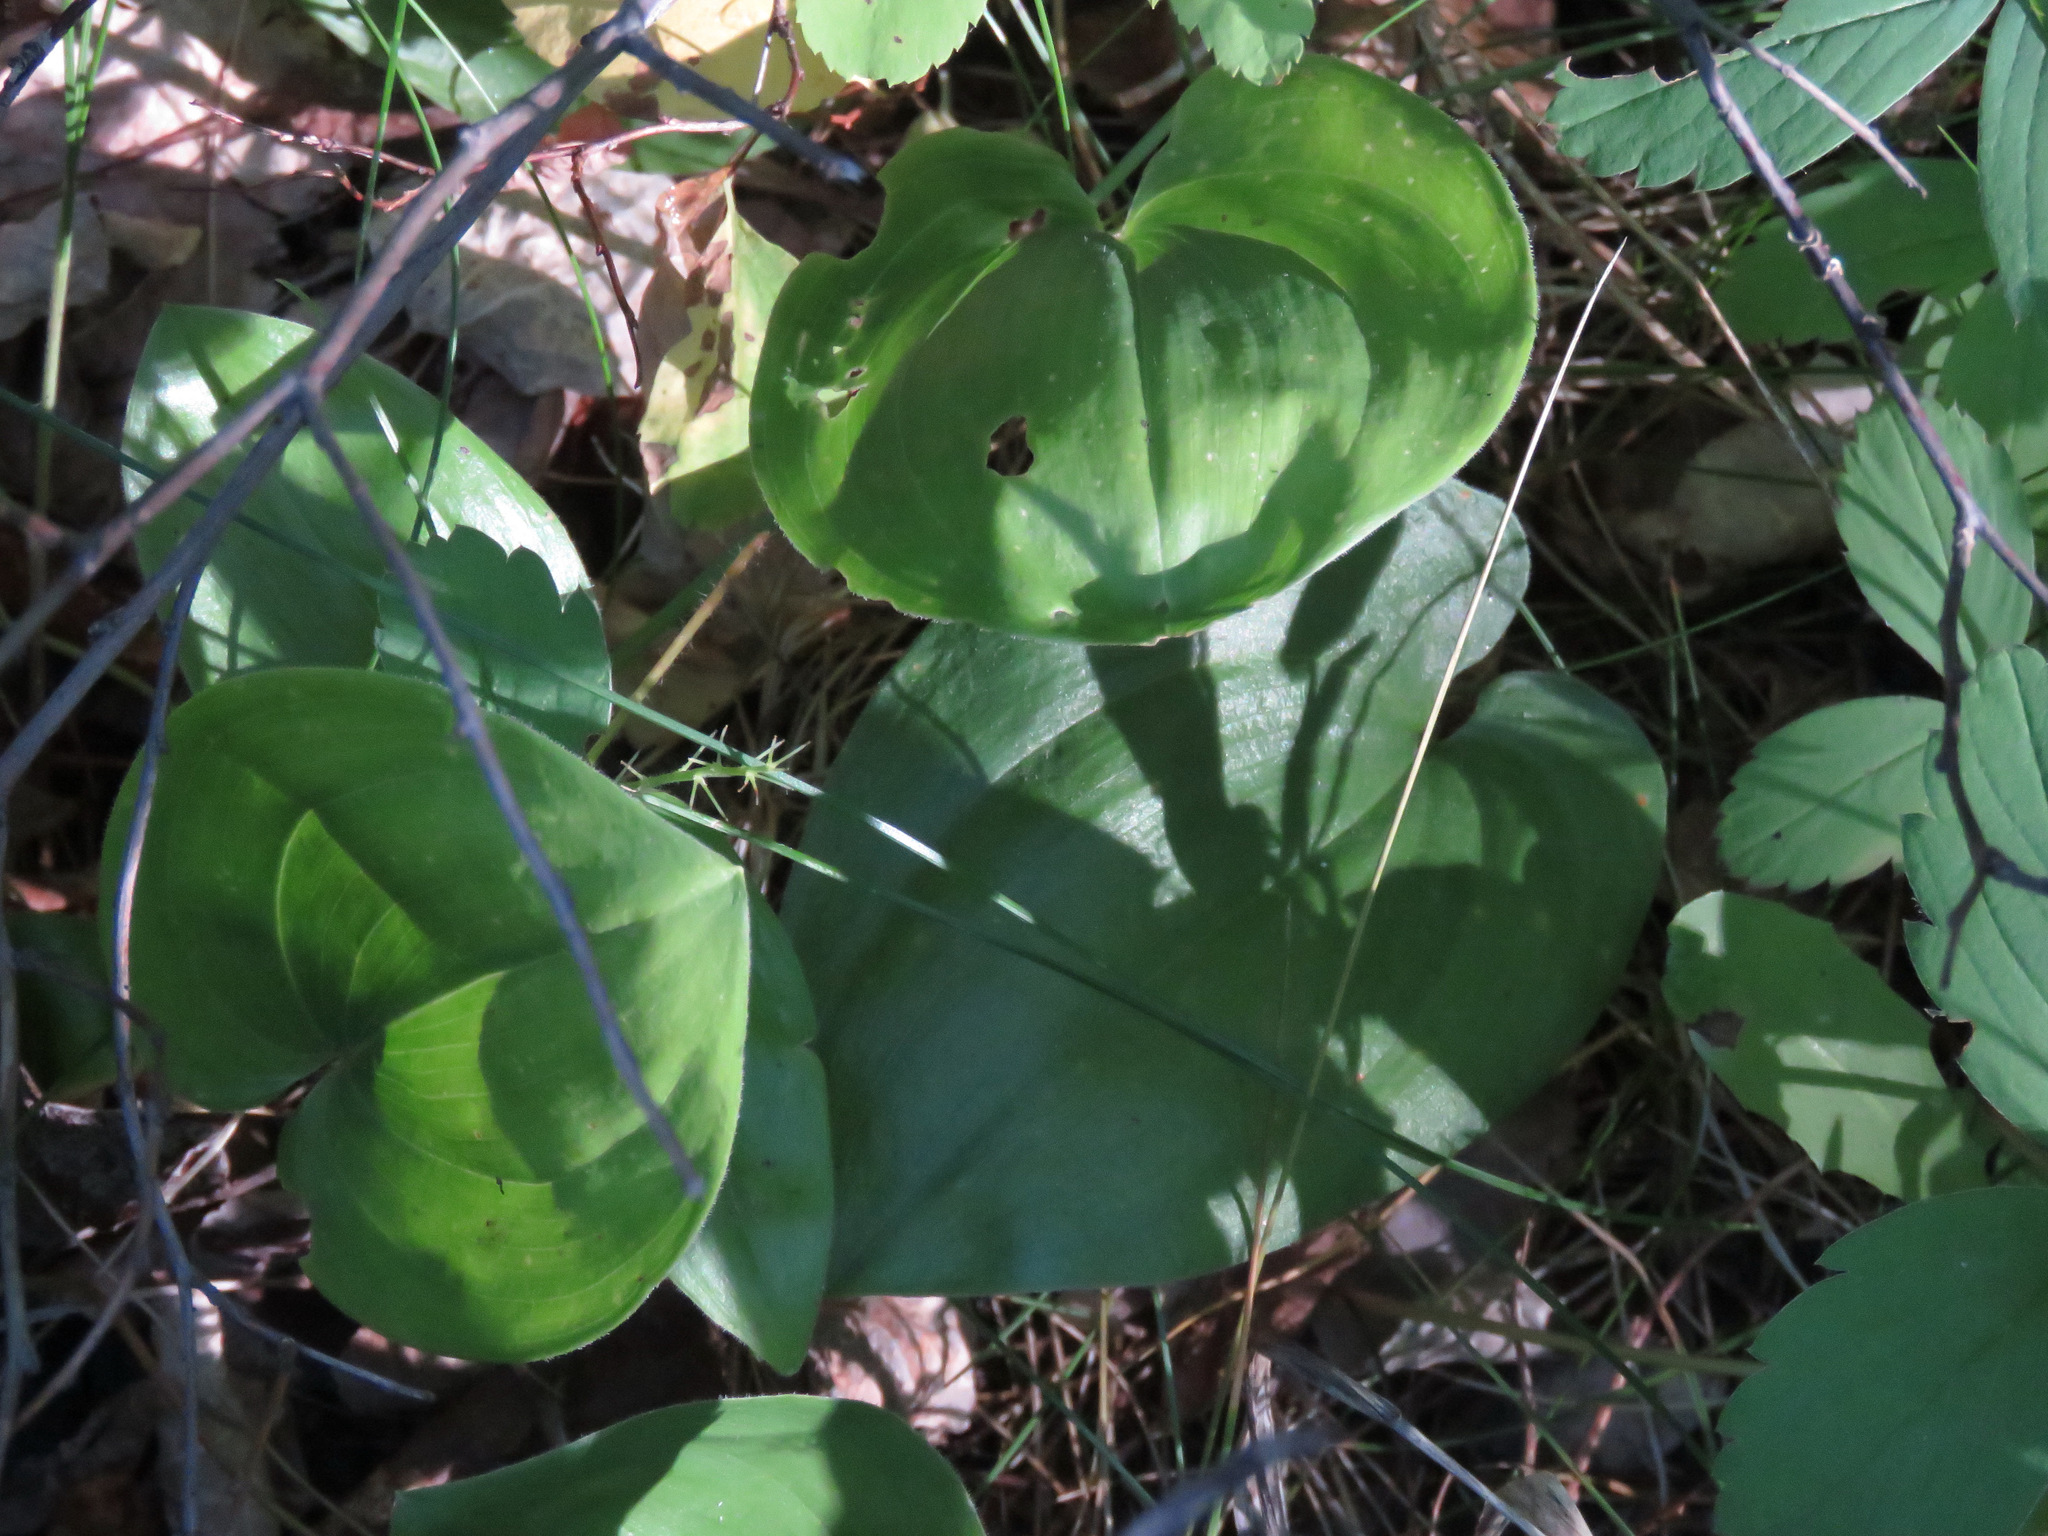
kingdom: Plantae
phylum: Tracheophyta
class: Liliopsida
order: Asparagales
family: Asparagaceae
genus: Maianthemum
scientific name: Maianthemum canadense
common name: False lily-of-the-valley
